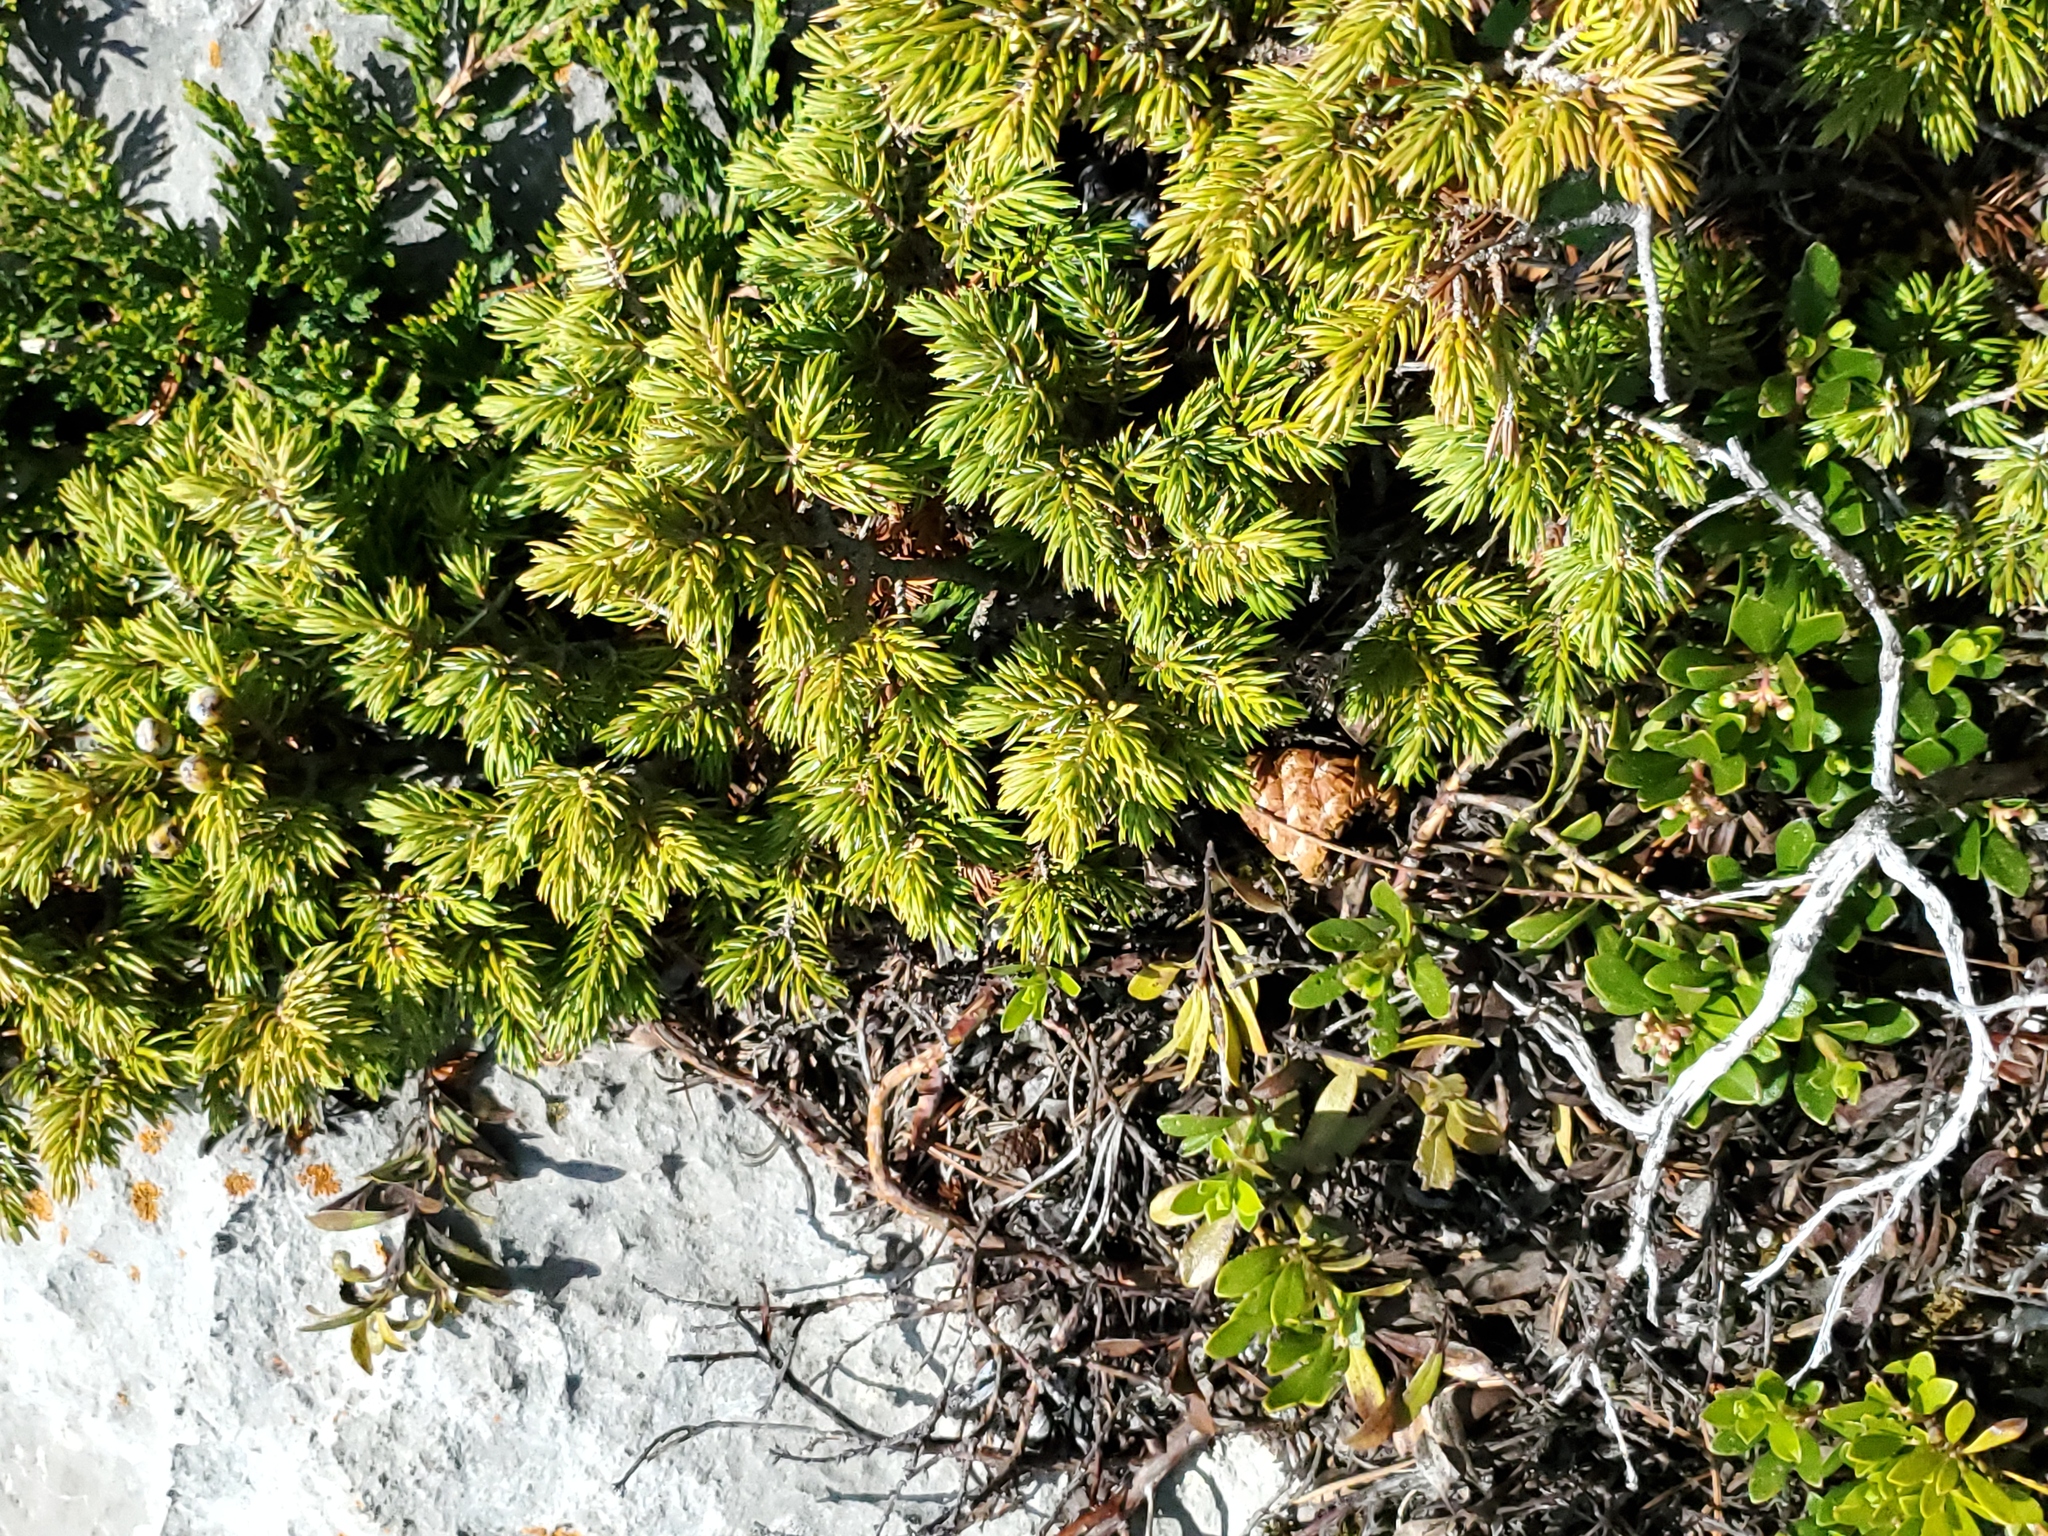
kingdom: Plantae
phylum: Tracheophyta
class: Pinopsida
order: Pinales
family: Cupressaceae
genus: Juniperus
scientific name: Juniperus communis
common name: Common juniper
